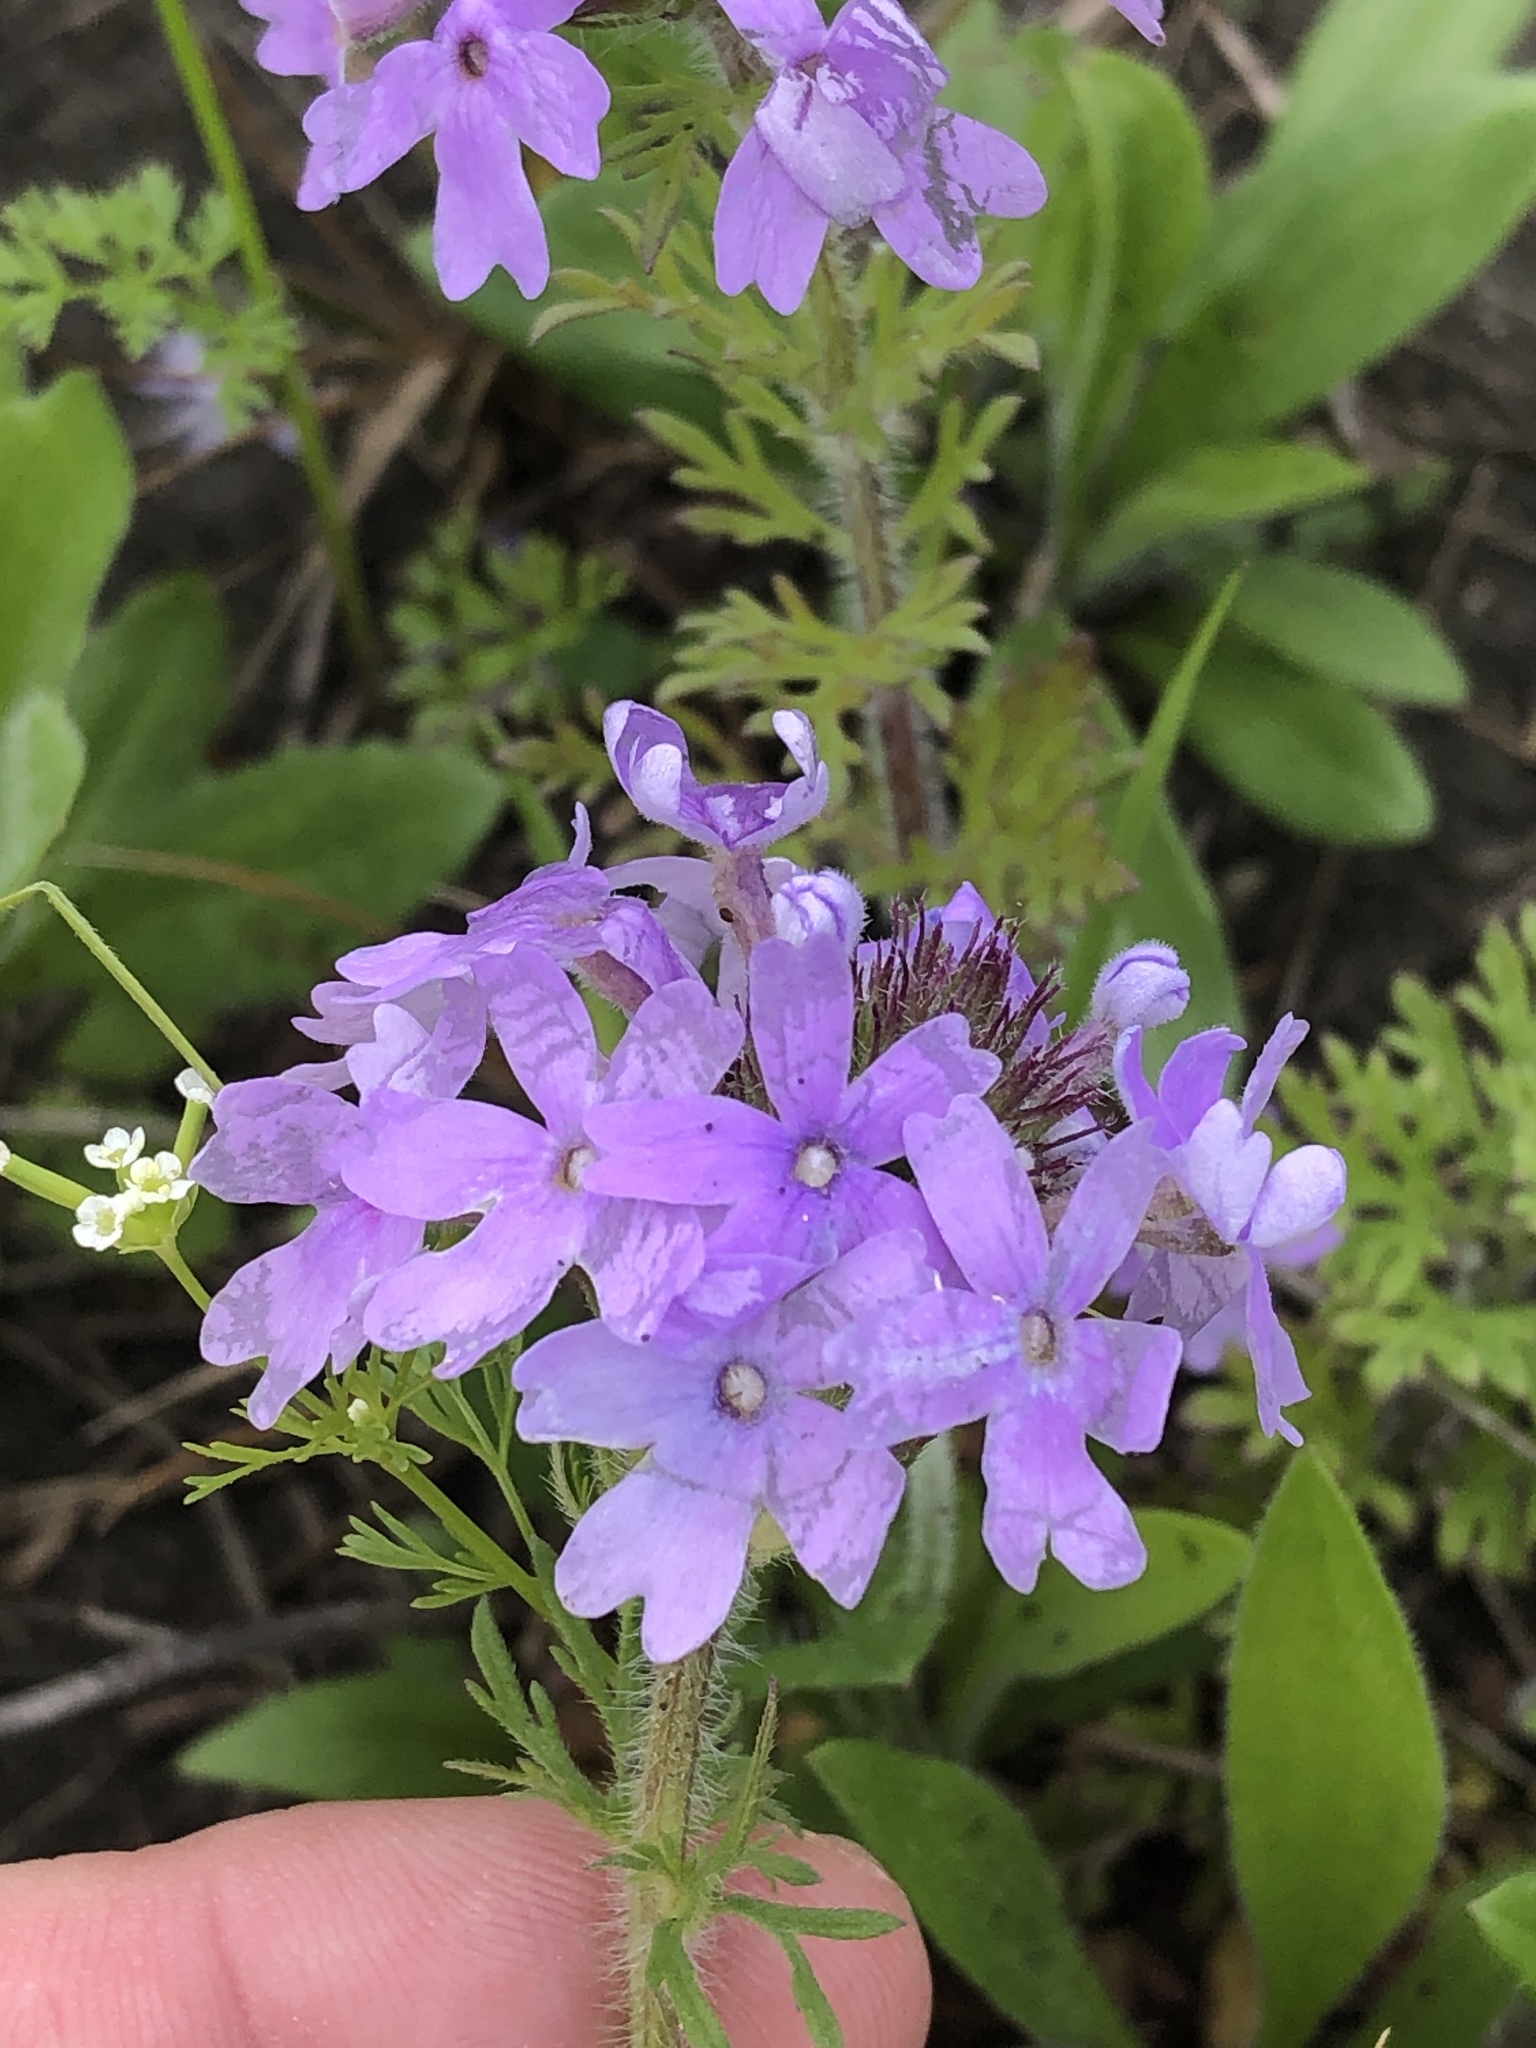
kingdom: Plantae
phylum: Tracheophyta
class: Magnoliopsida
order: Lamiales
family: Verbenaceae
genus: Verbena
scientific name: Verbena bipinnatifida
